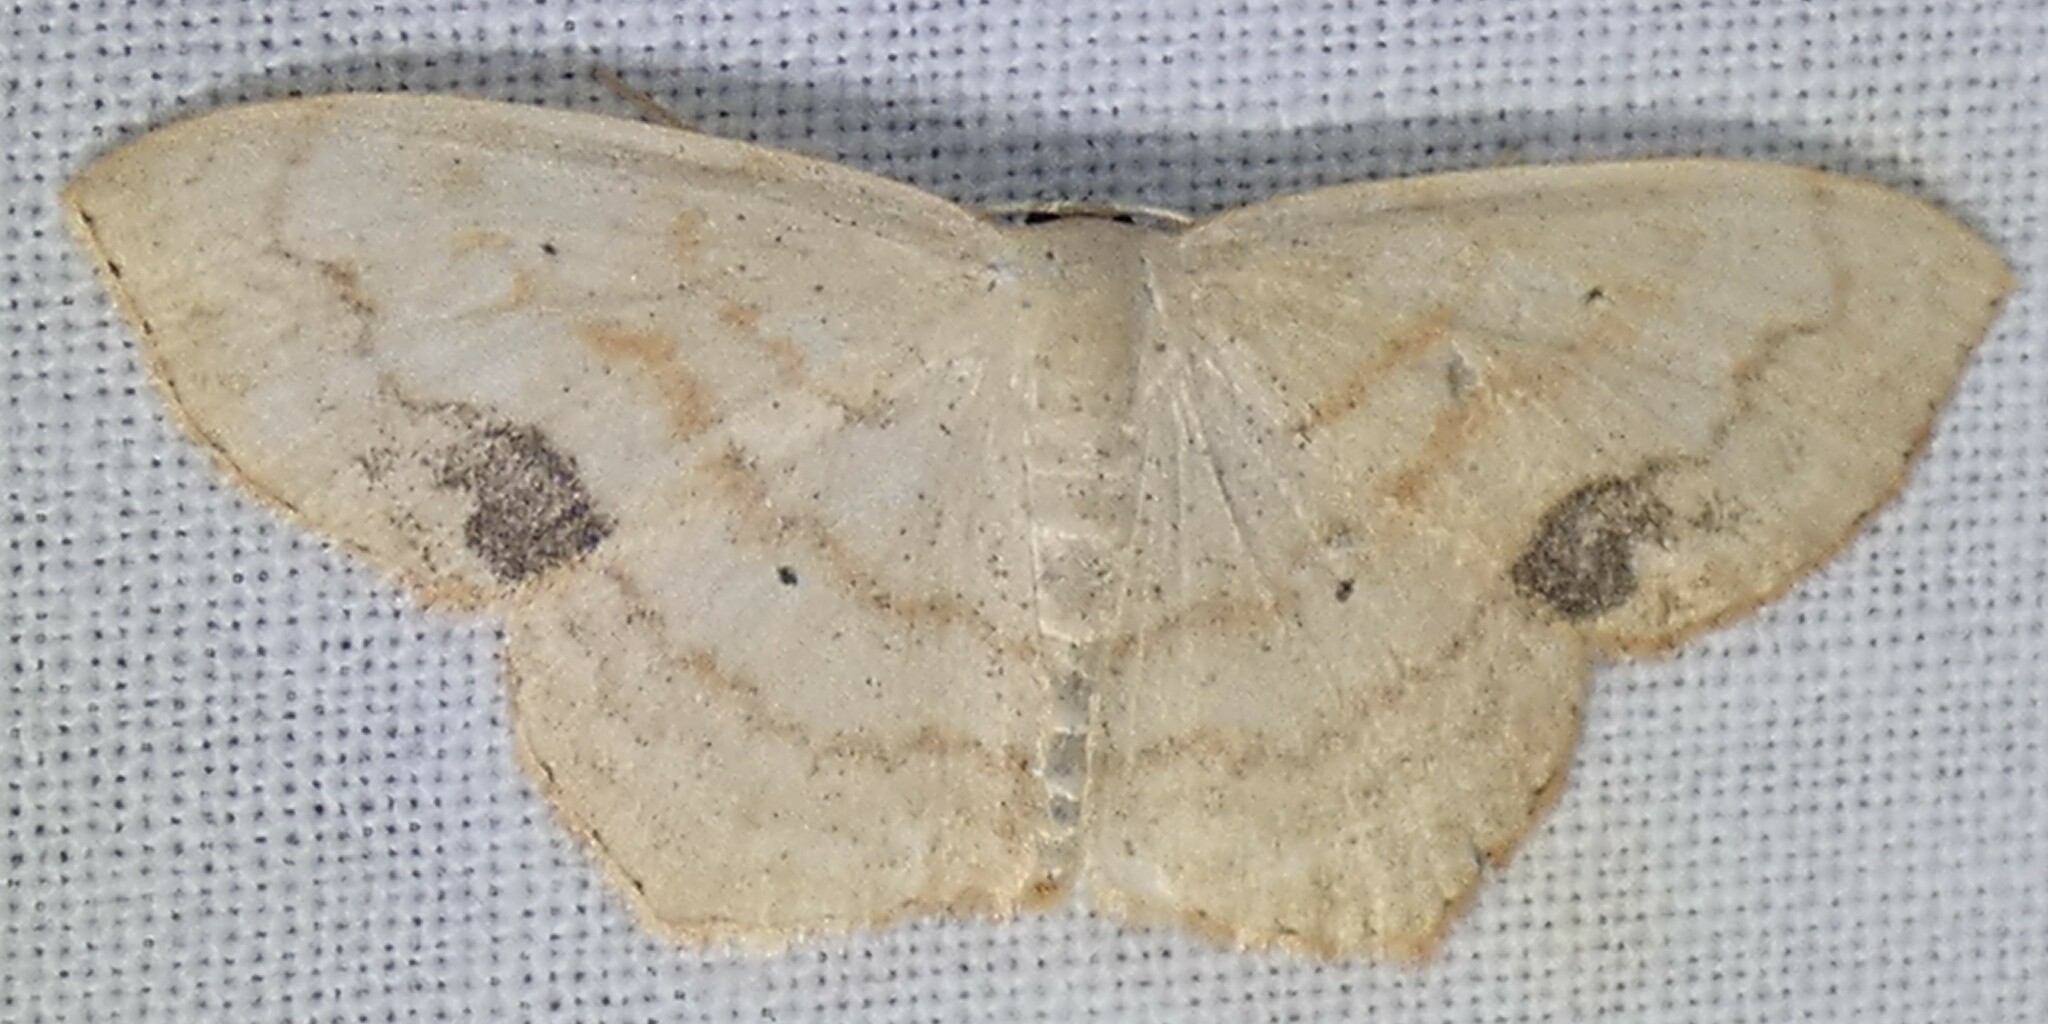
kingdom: Animalia
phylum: Arthropoda
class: Insecta
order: Lepidoptera
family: Geometridae
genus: Scopula
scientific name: Scopula limboundata
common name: Large lace border
